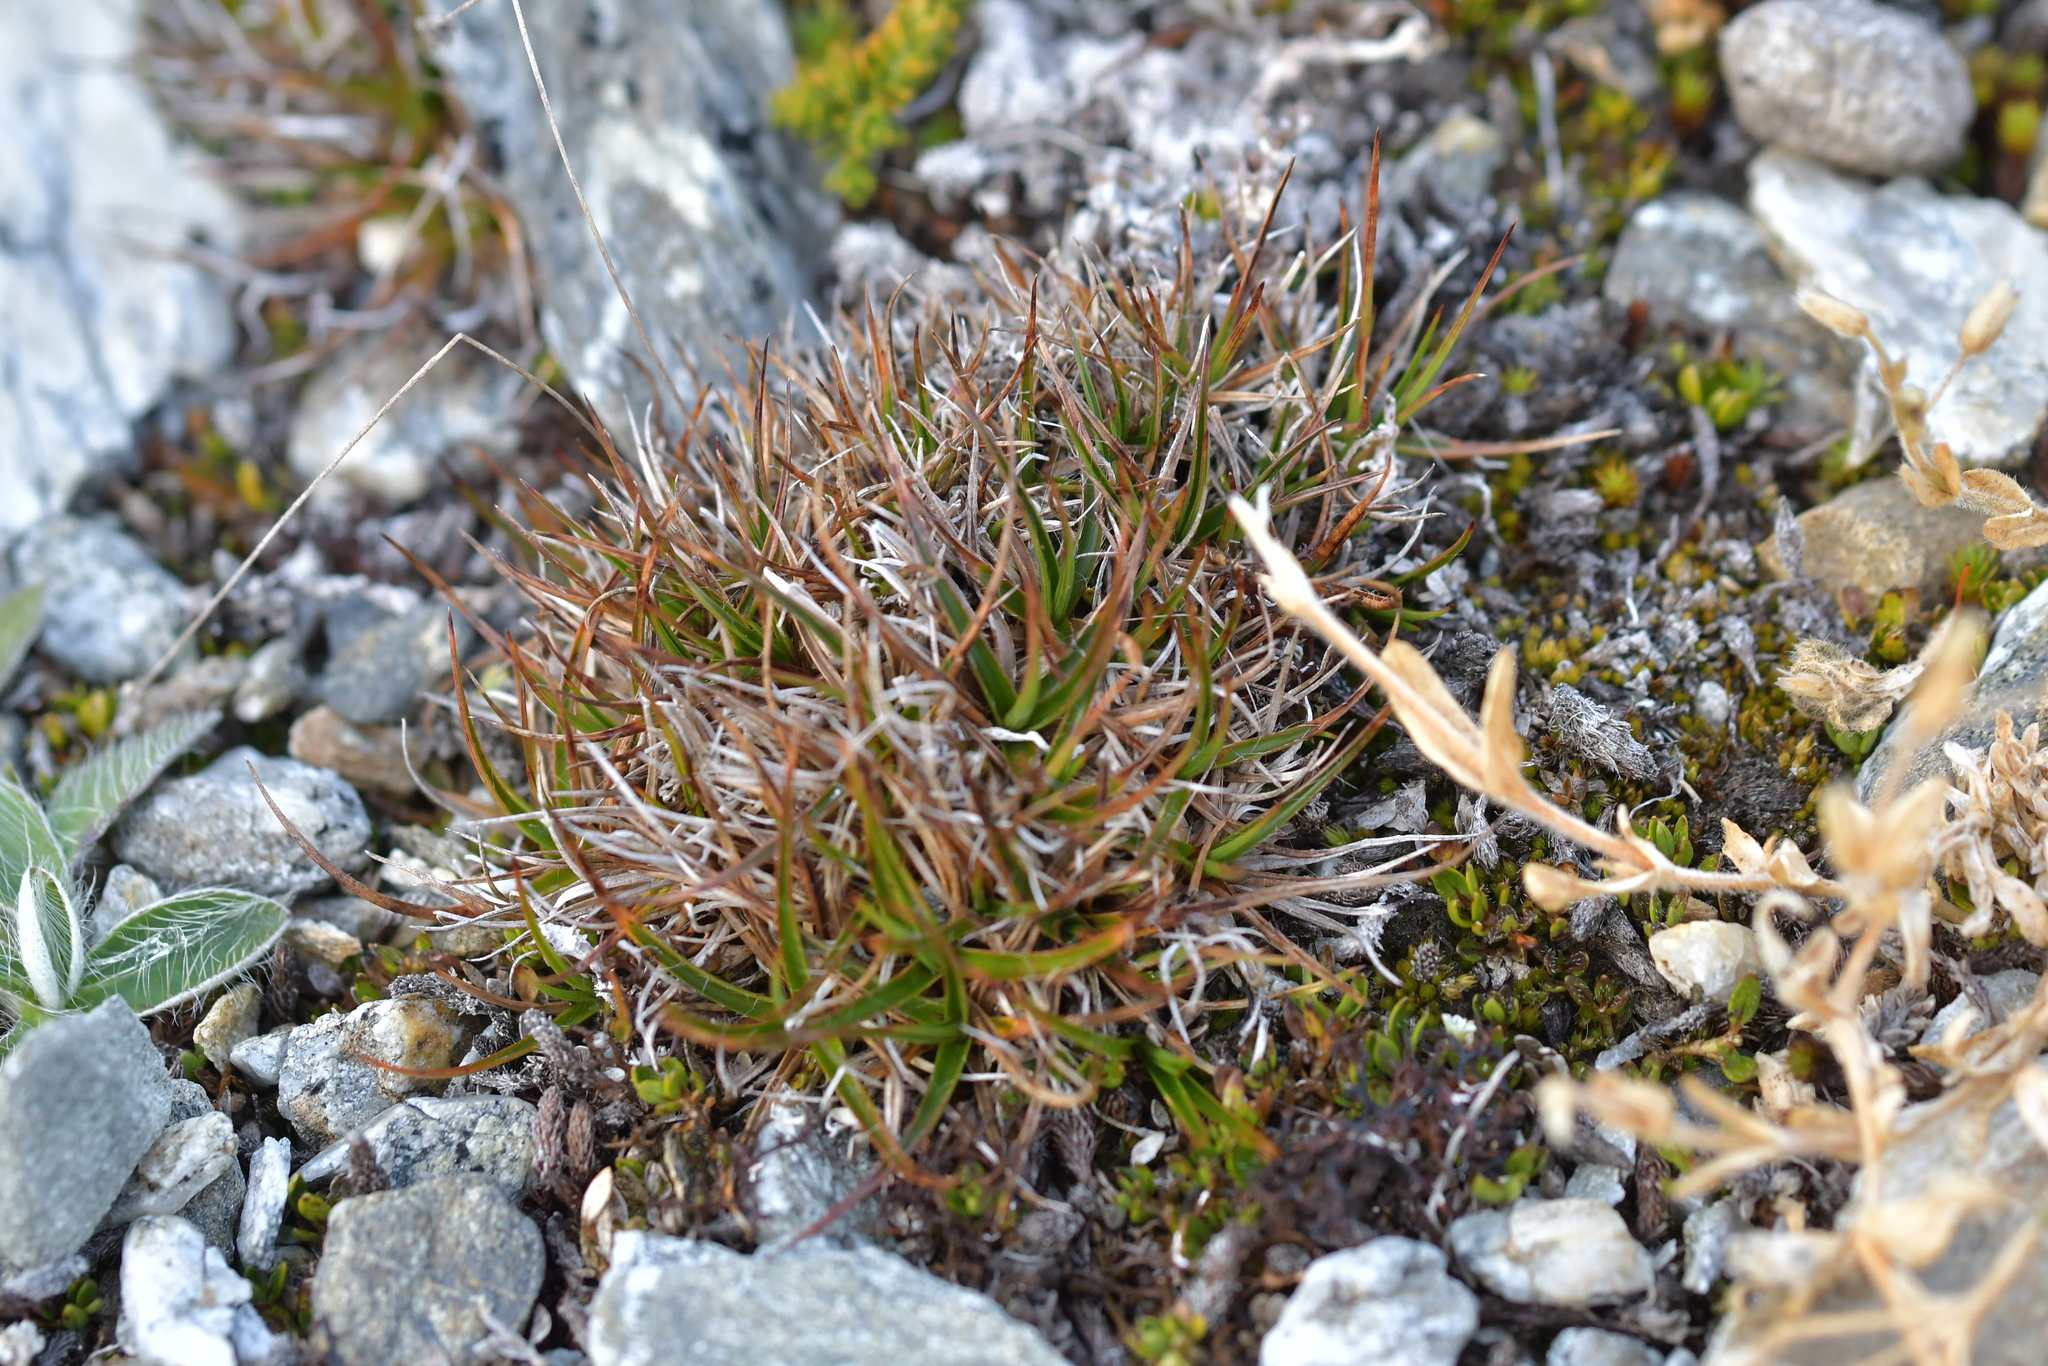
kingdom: Plantae
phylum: Tracheophyta
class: Liliopsida
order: Poales
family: Juncaceae
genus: Luzula
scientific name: Luzula pumila
